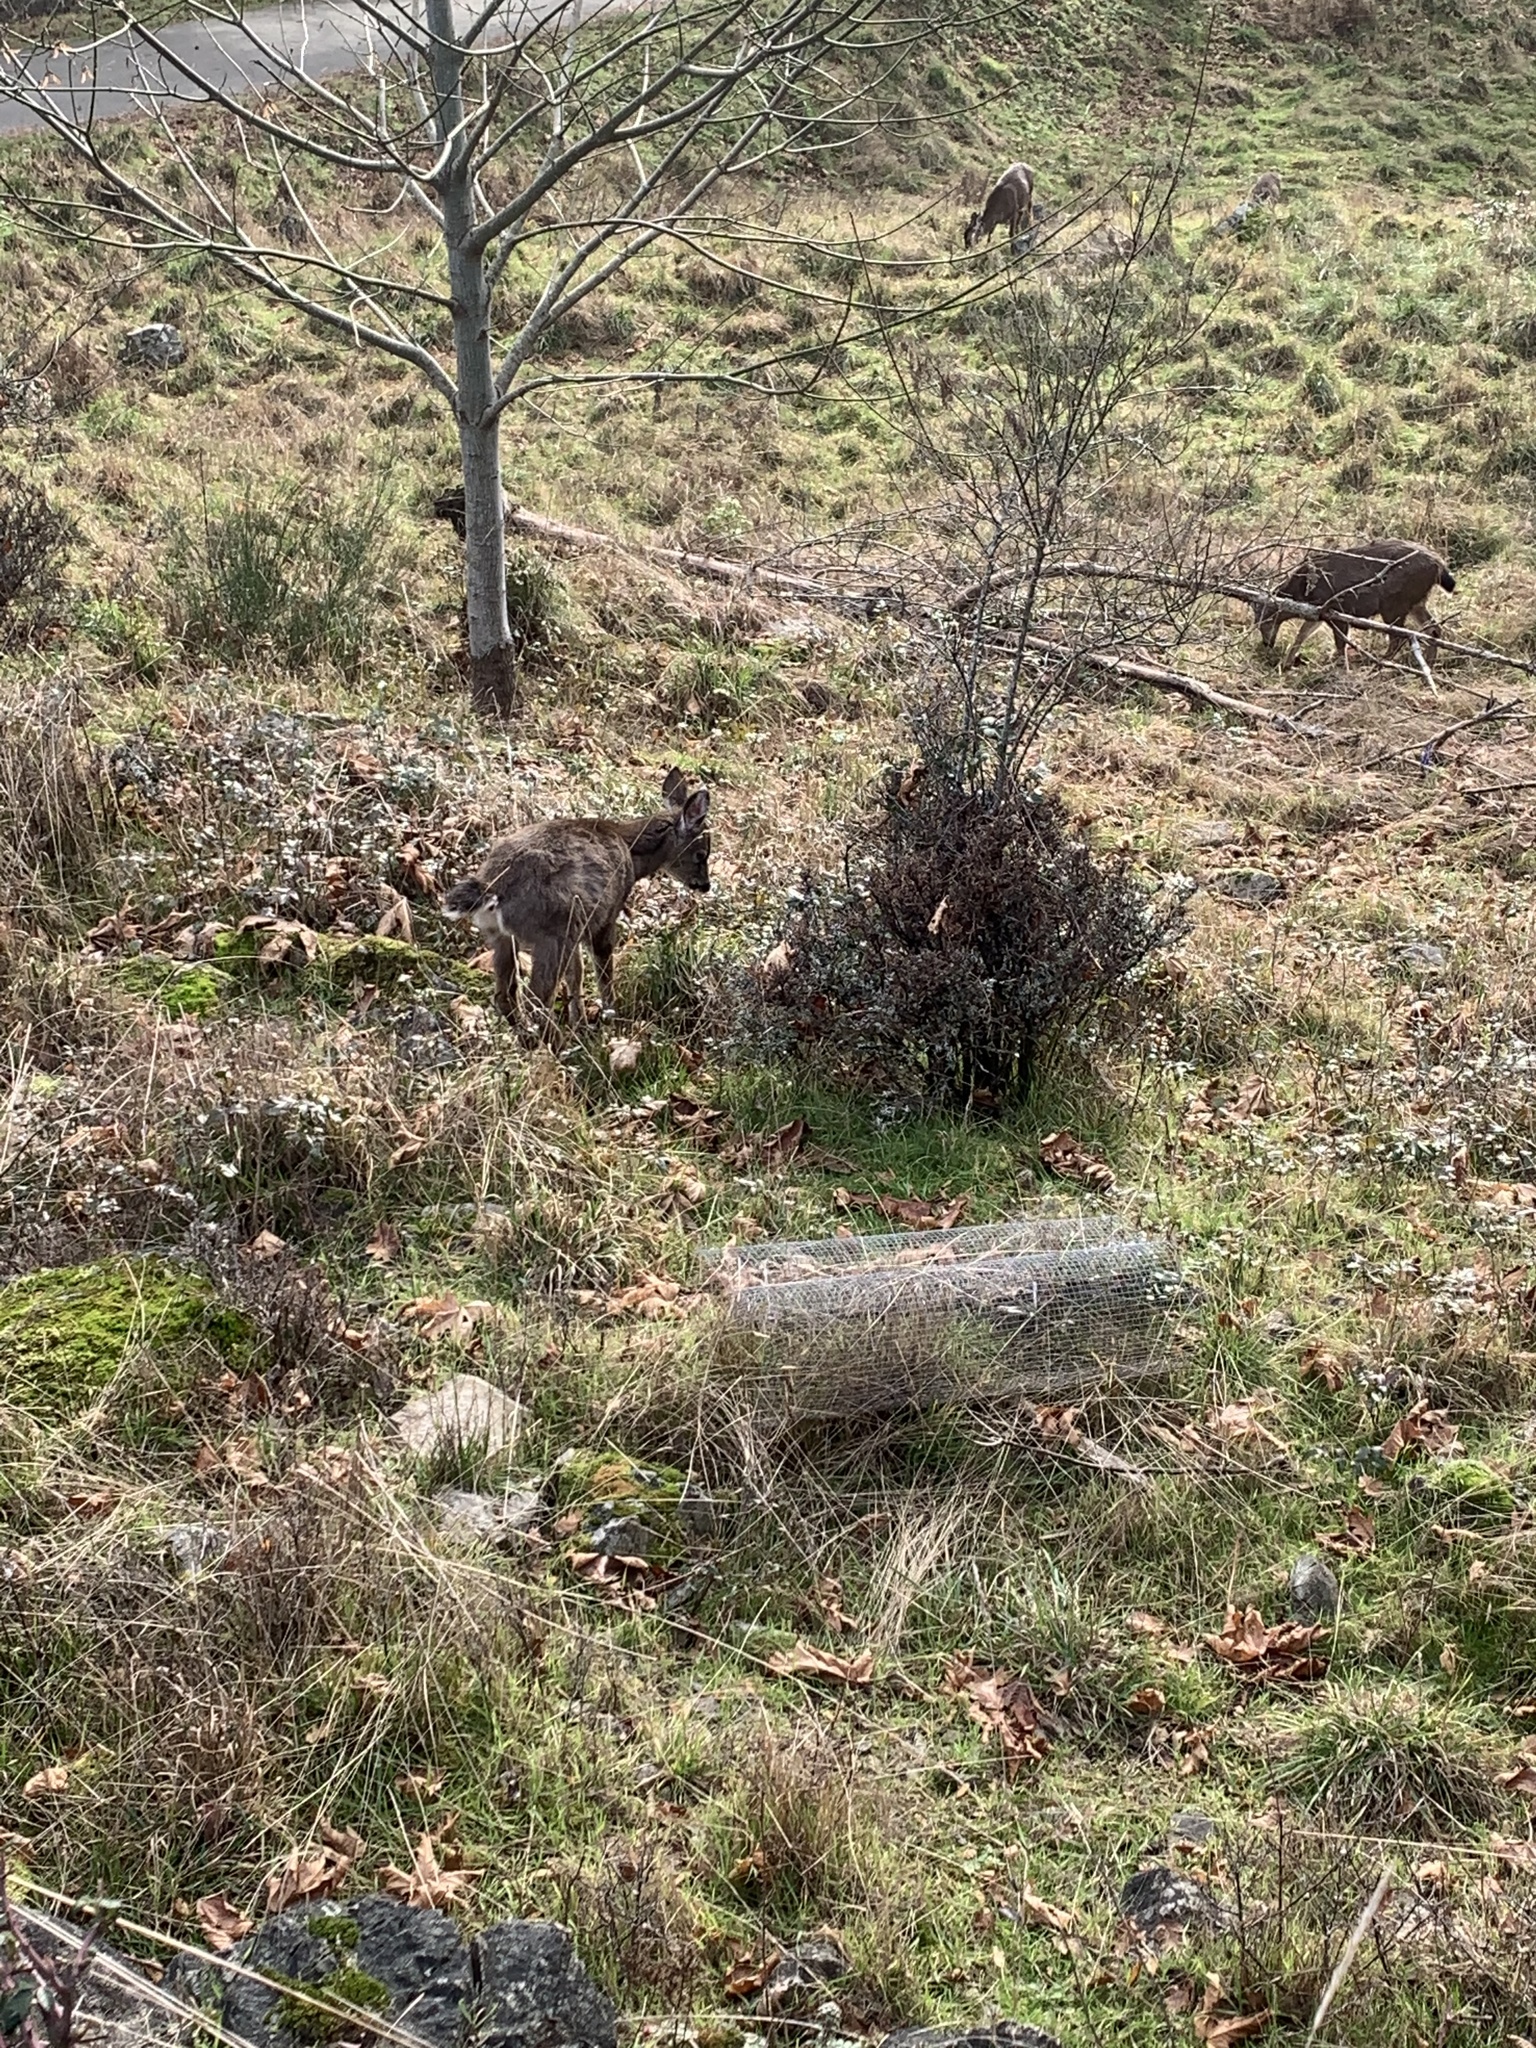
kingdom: Animalia
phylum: Chordata
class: Mammalia
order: Artiodactyla
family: Cervidae
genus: Odocoileus
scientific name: Odocoileus hemionus
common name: Mule deer
